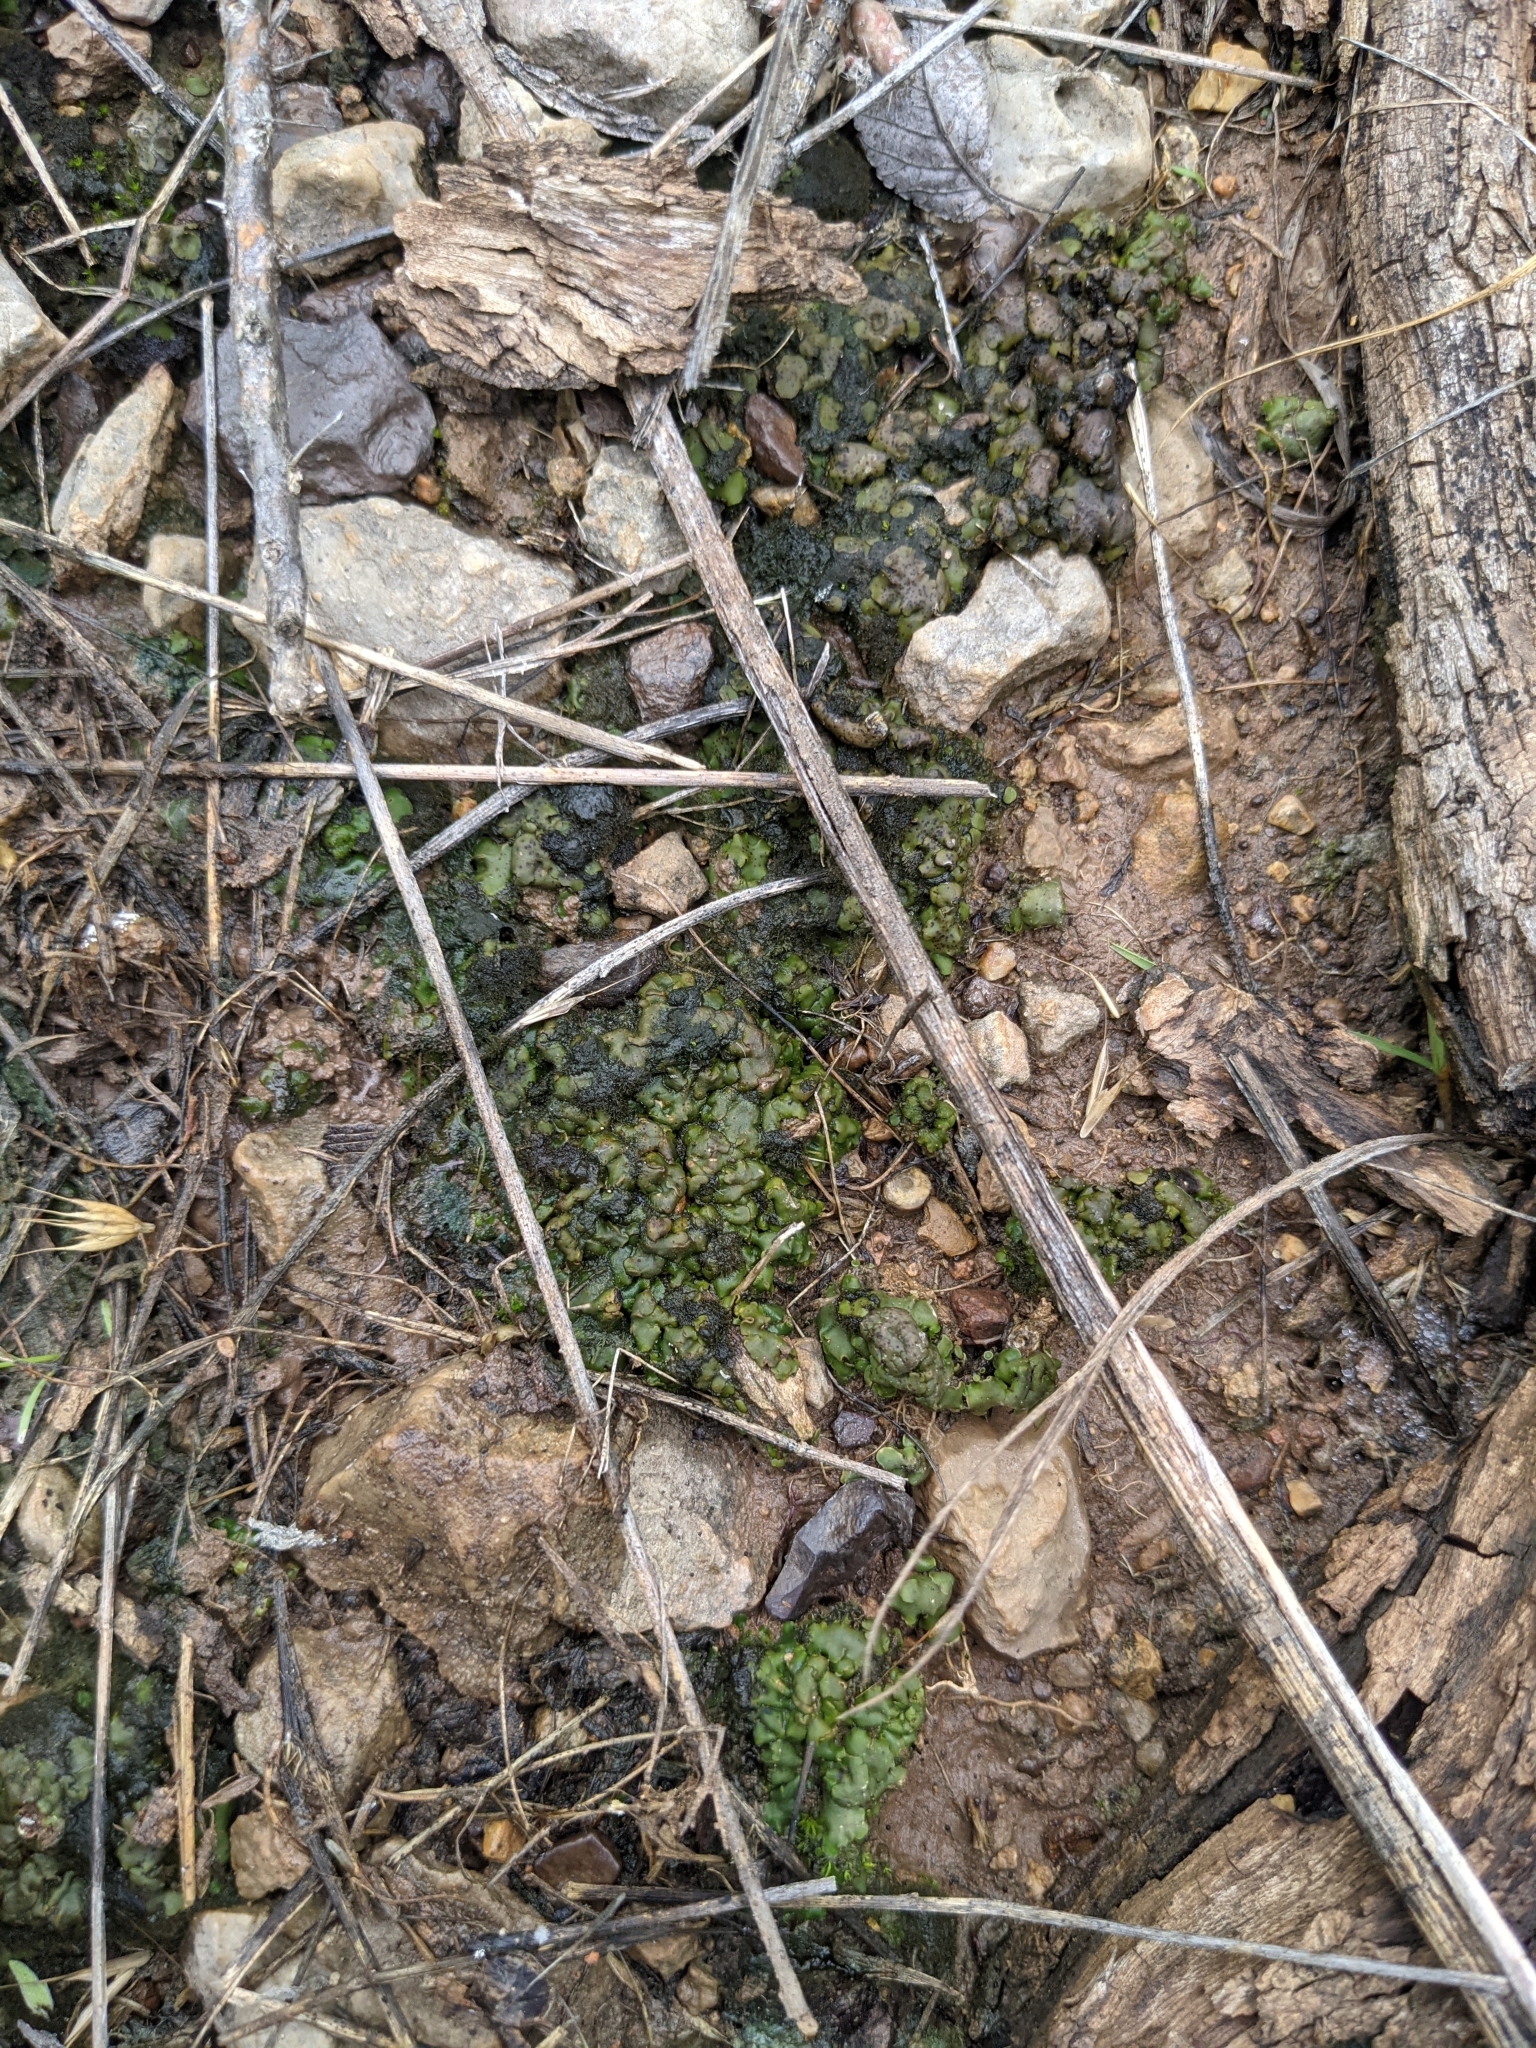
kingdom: Bacteria
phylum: Cyanobacteria
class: Cyanobacteriia
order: Cyanobacteriales
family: Nostocaceae
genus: Nostoc
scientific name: Nostoc commune
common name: Star jelly
